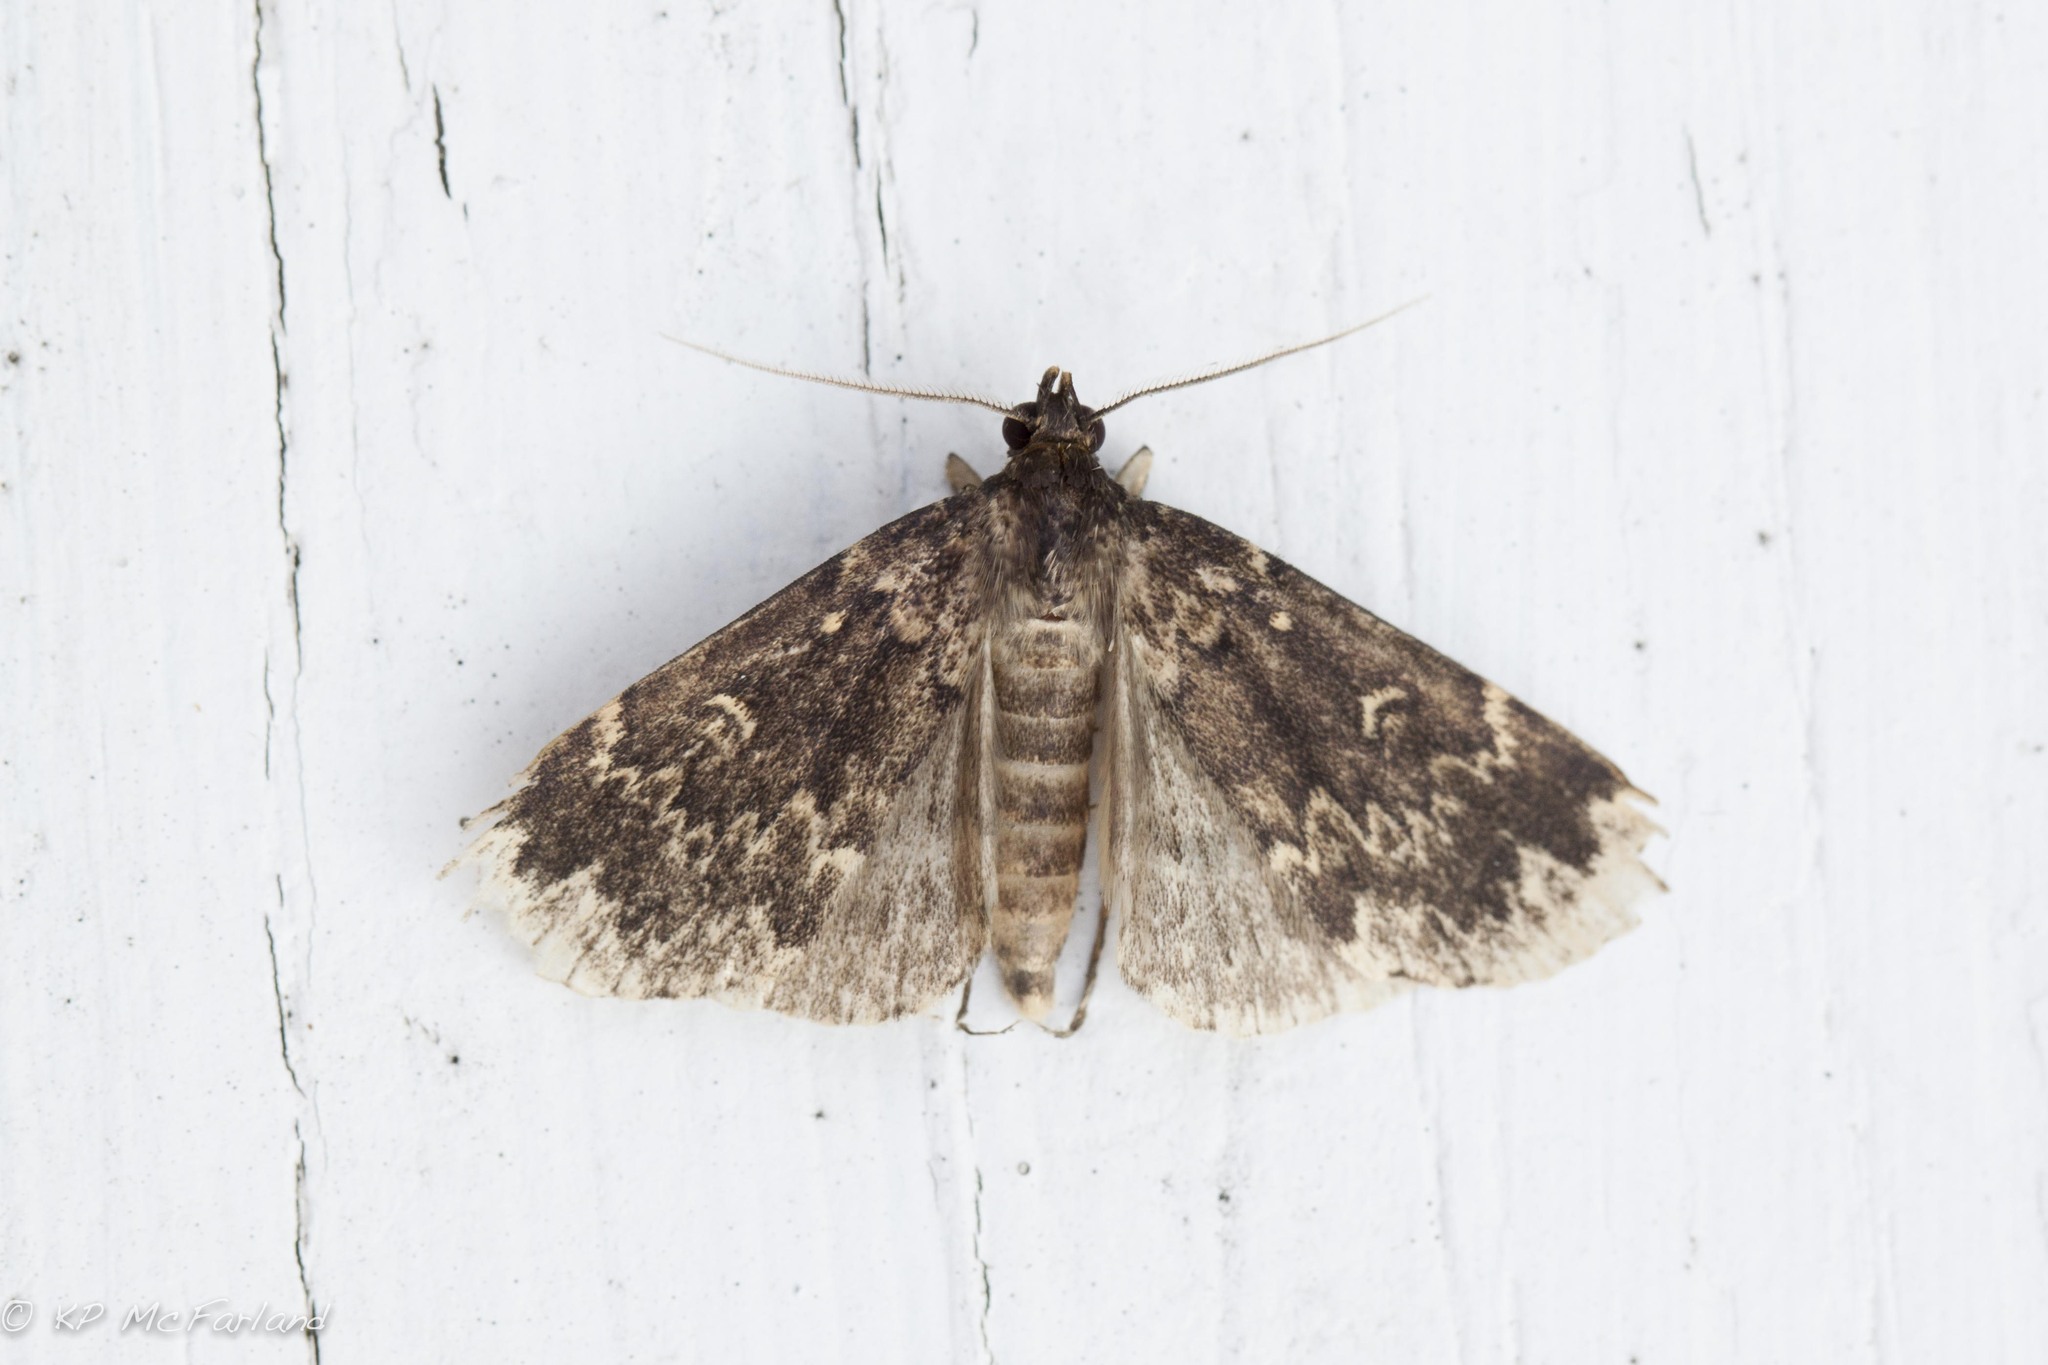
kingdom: Animalia
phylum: Arthropoda
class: Insecta
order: Lepidoptera
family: Erebidae
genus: Idia
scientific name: Idia lubricalis
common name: Twin-striped tabby
